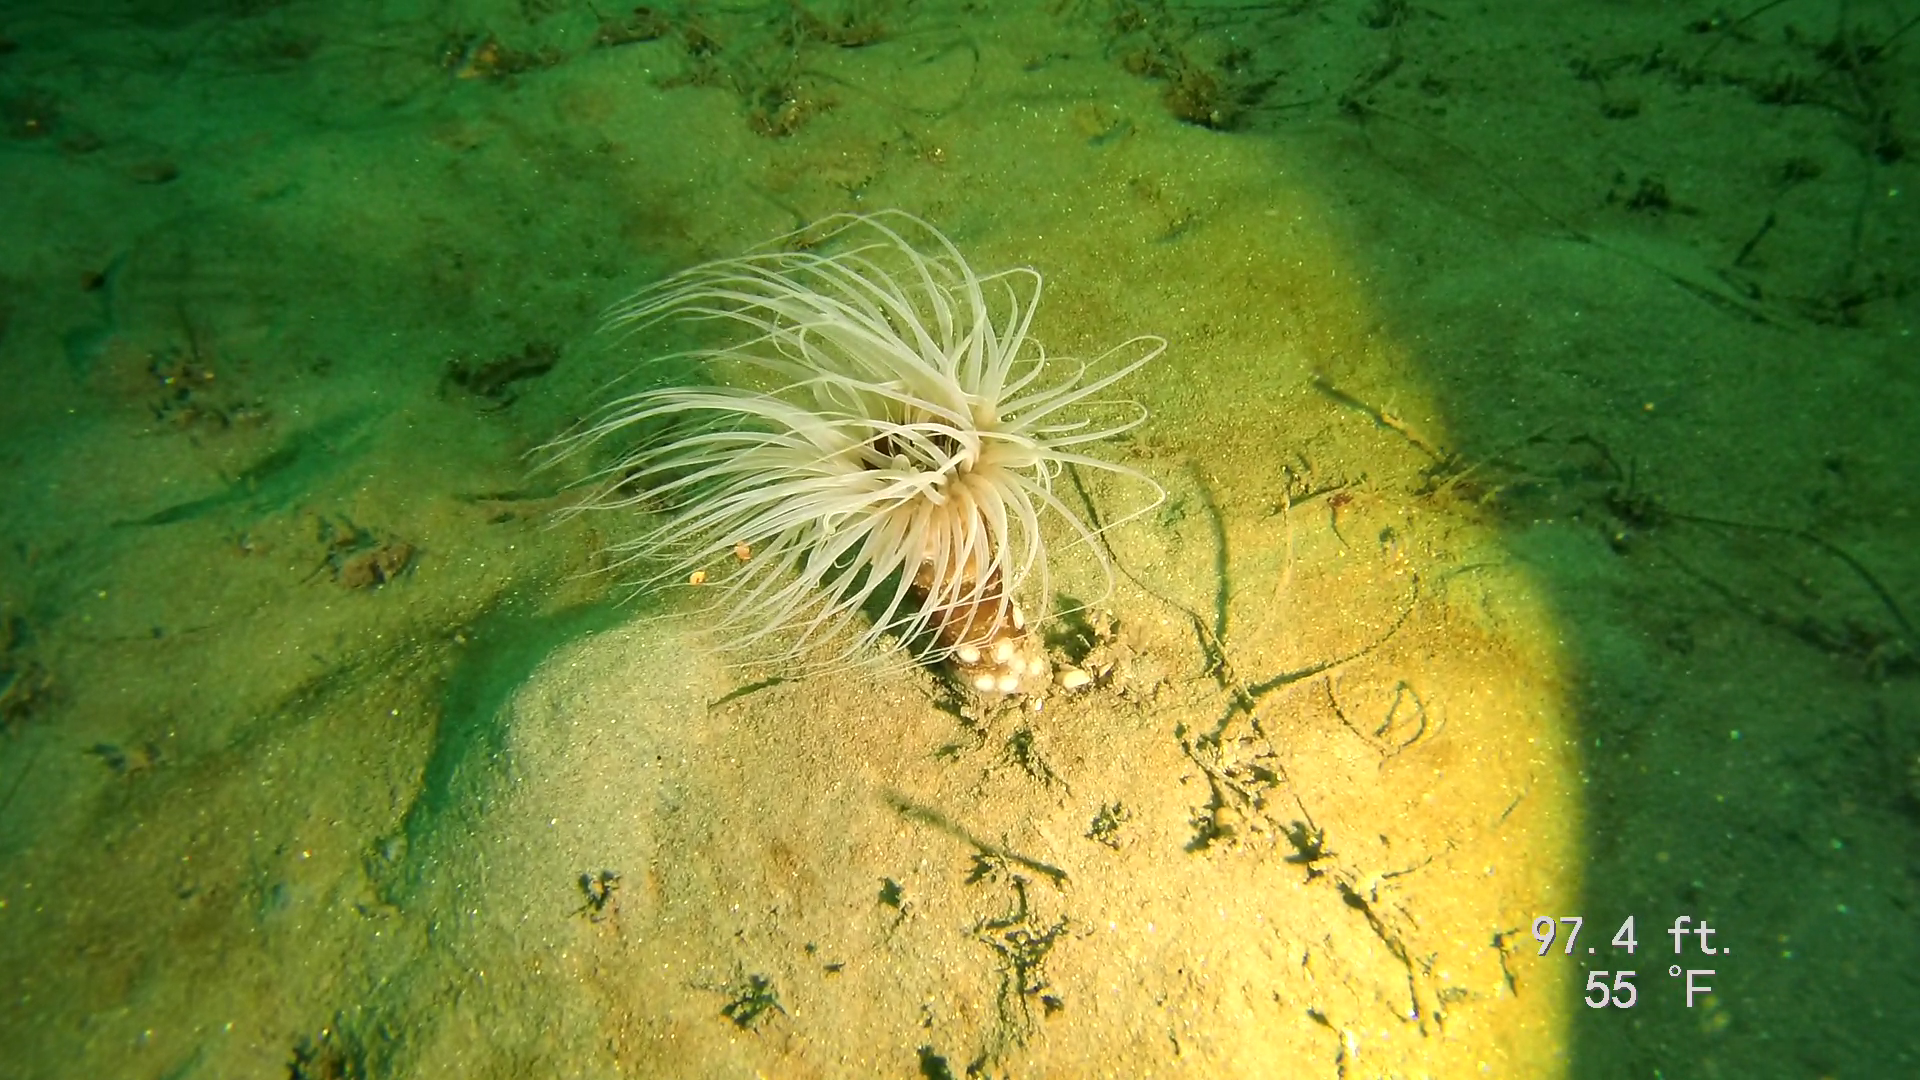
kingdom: Animalia
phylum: Cnidaria
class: Anthozoa
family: Cerianthidae
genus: Pachycerianthus
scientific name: Pachycerianthus fimbriatus
